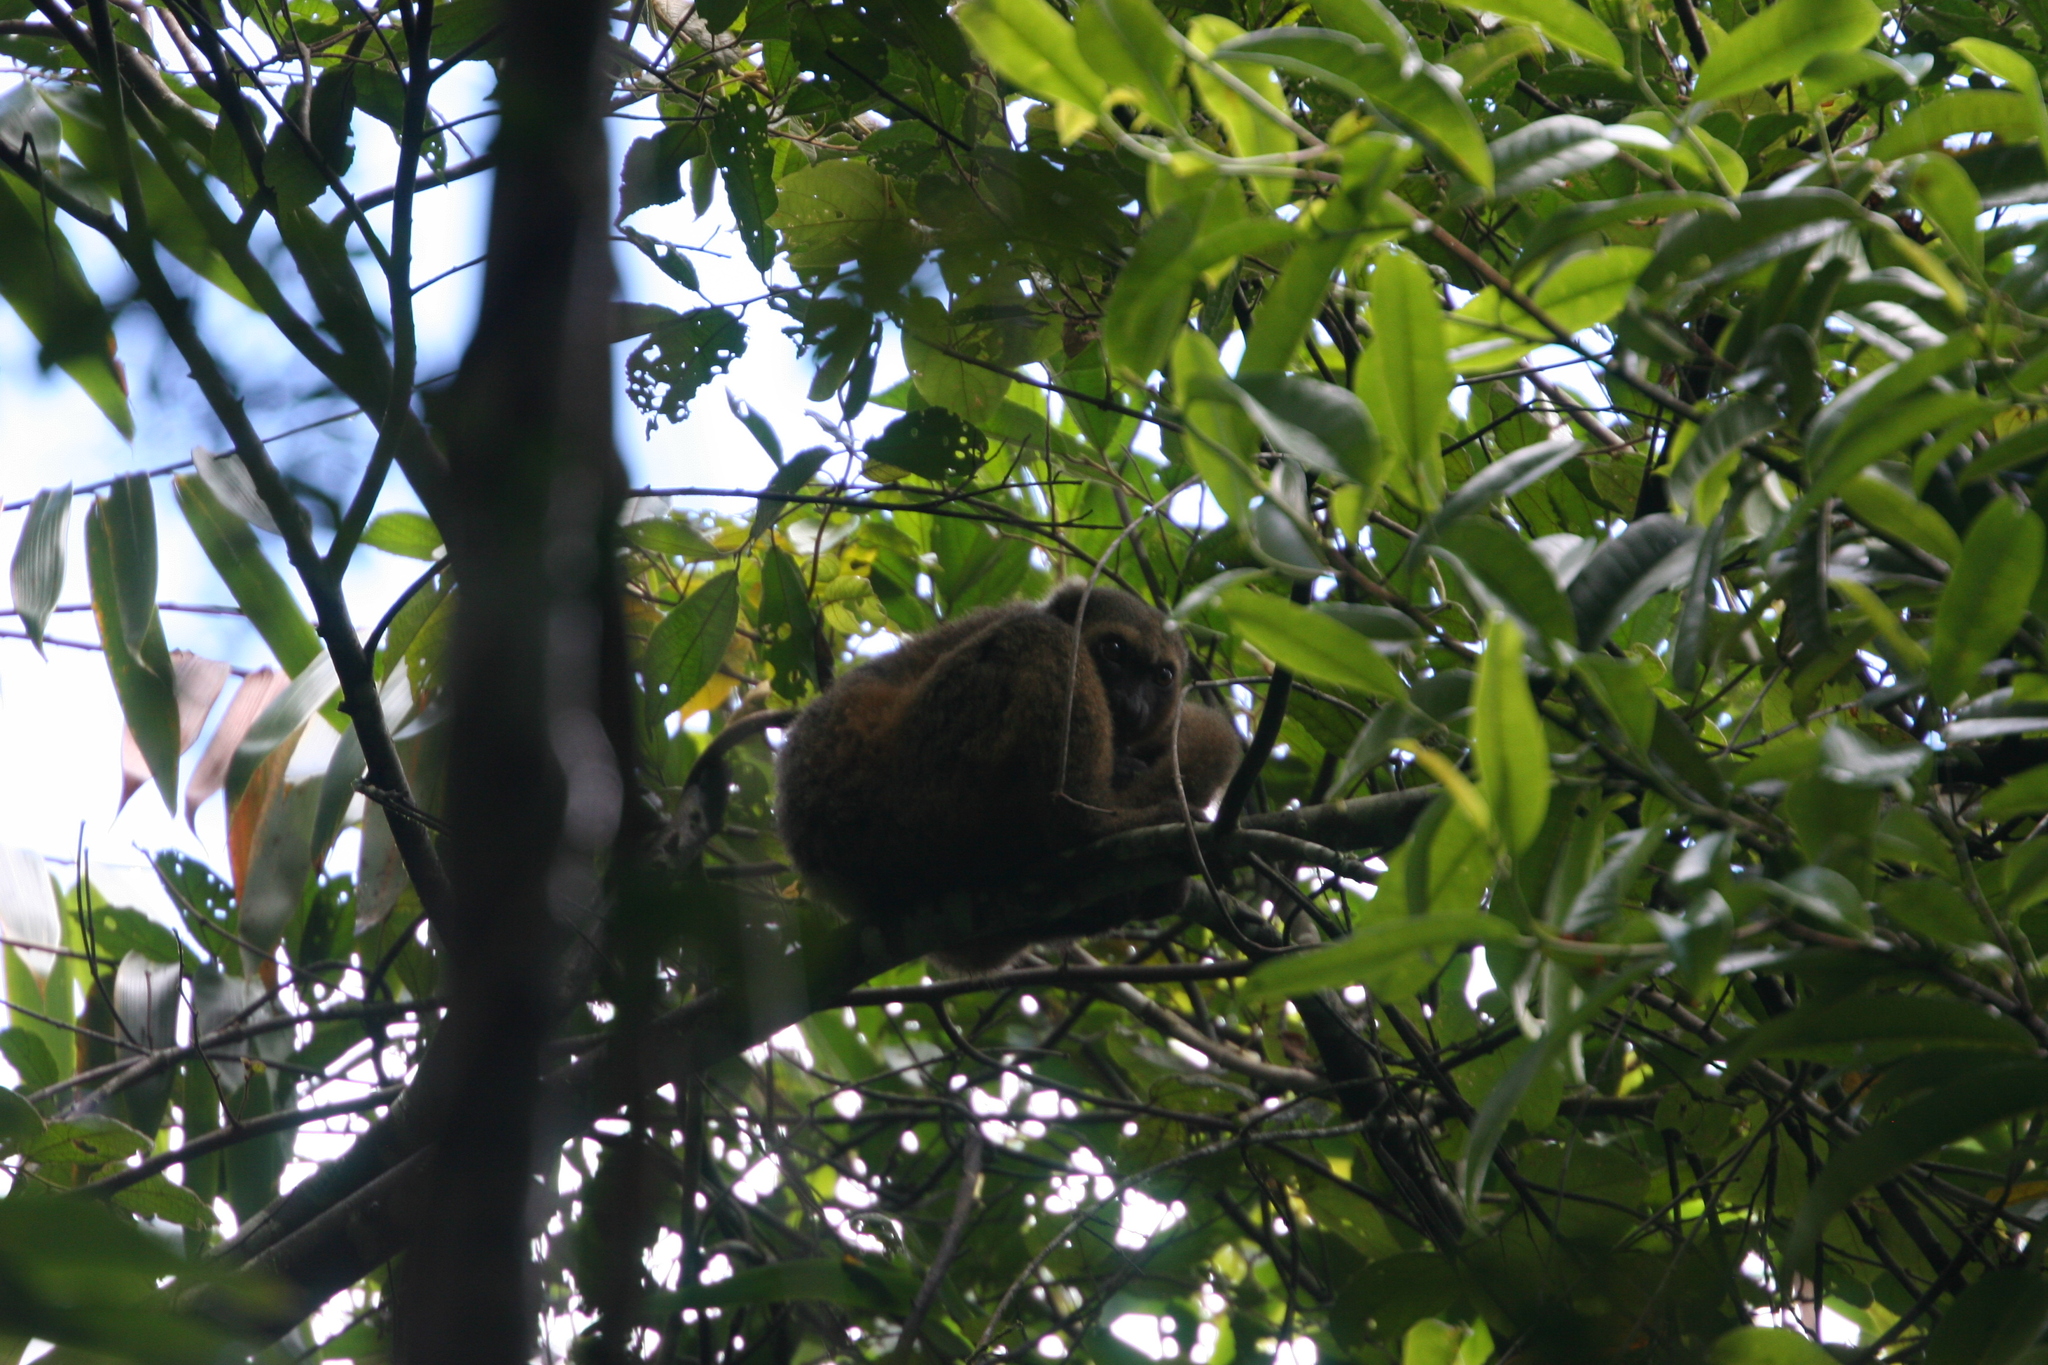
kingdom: Animalia
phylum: Chordata
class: Mammalia
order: Primates
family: Lemuridae
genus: Hapalemur
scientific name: Hapalemur aureus
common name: Golden bamboo lemur
